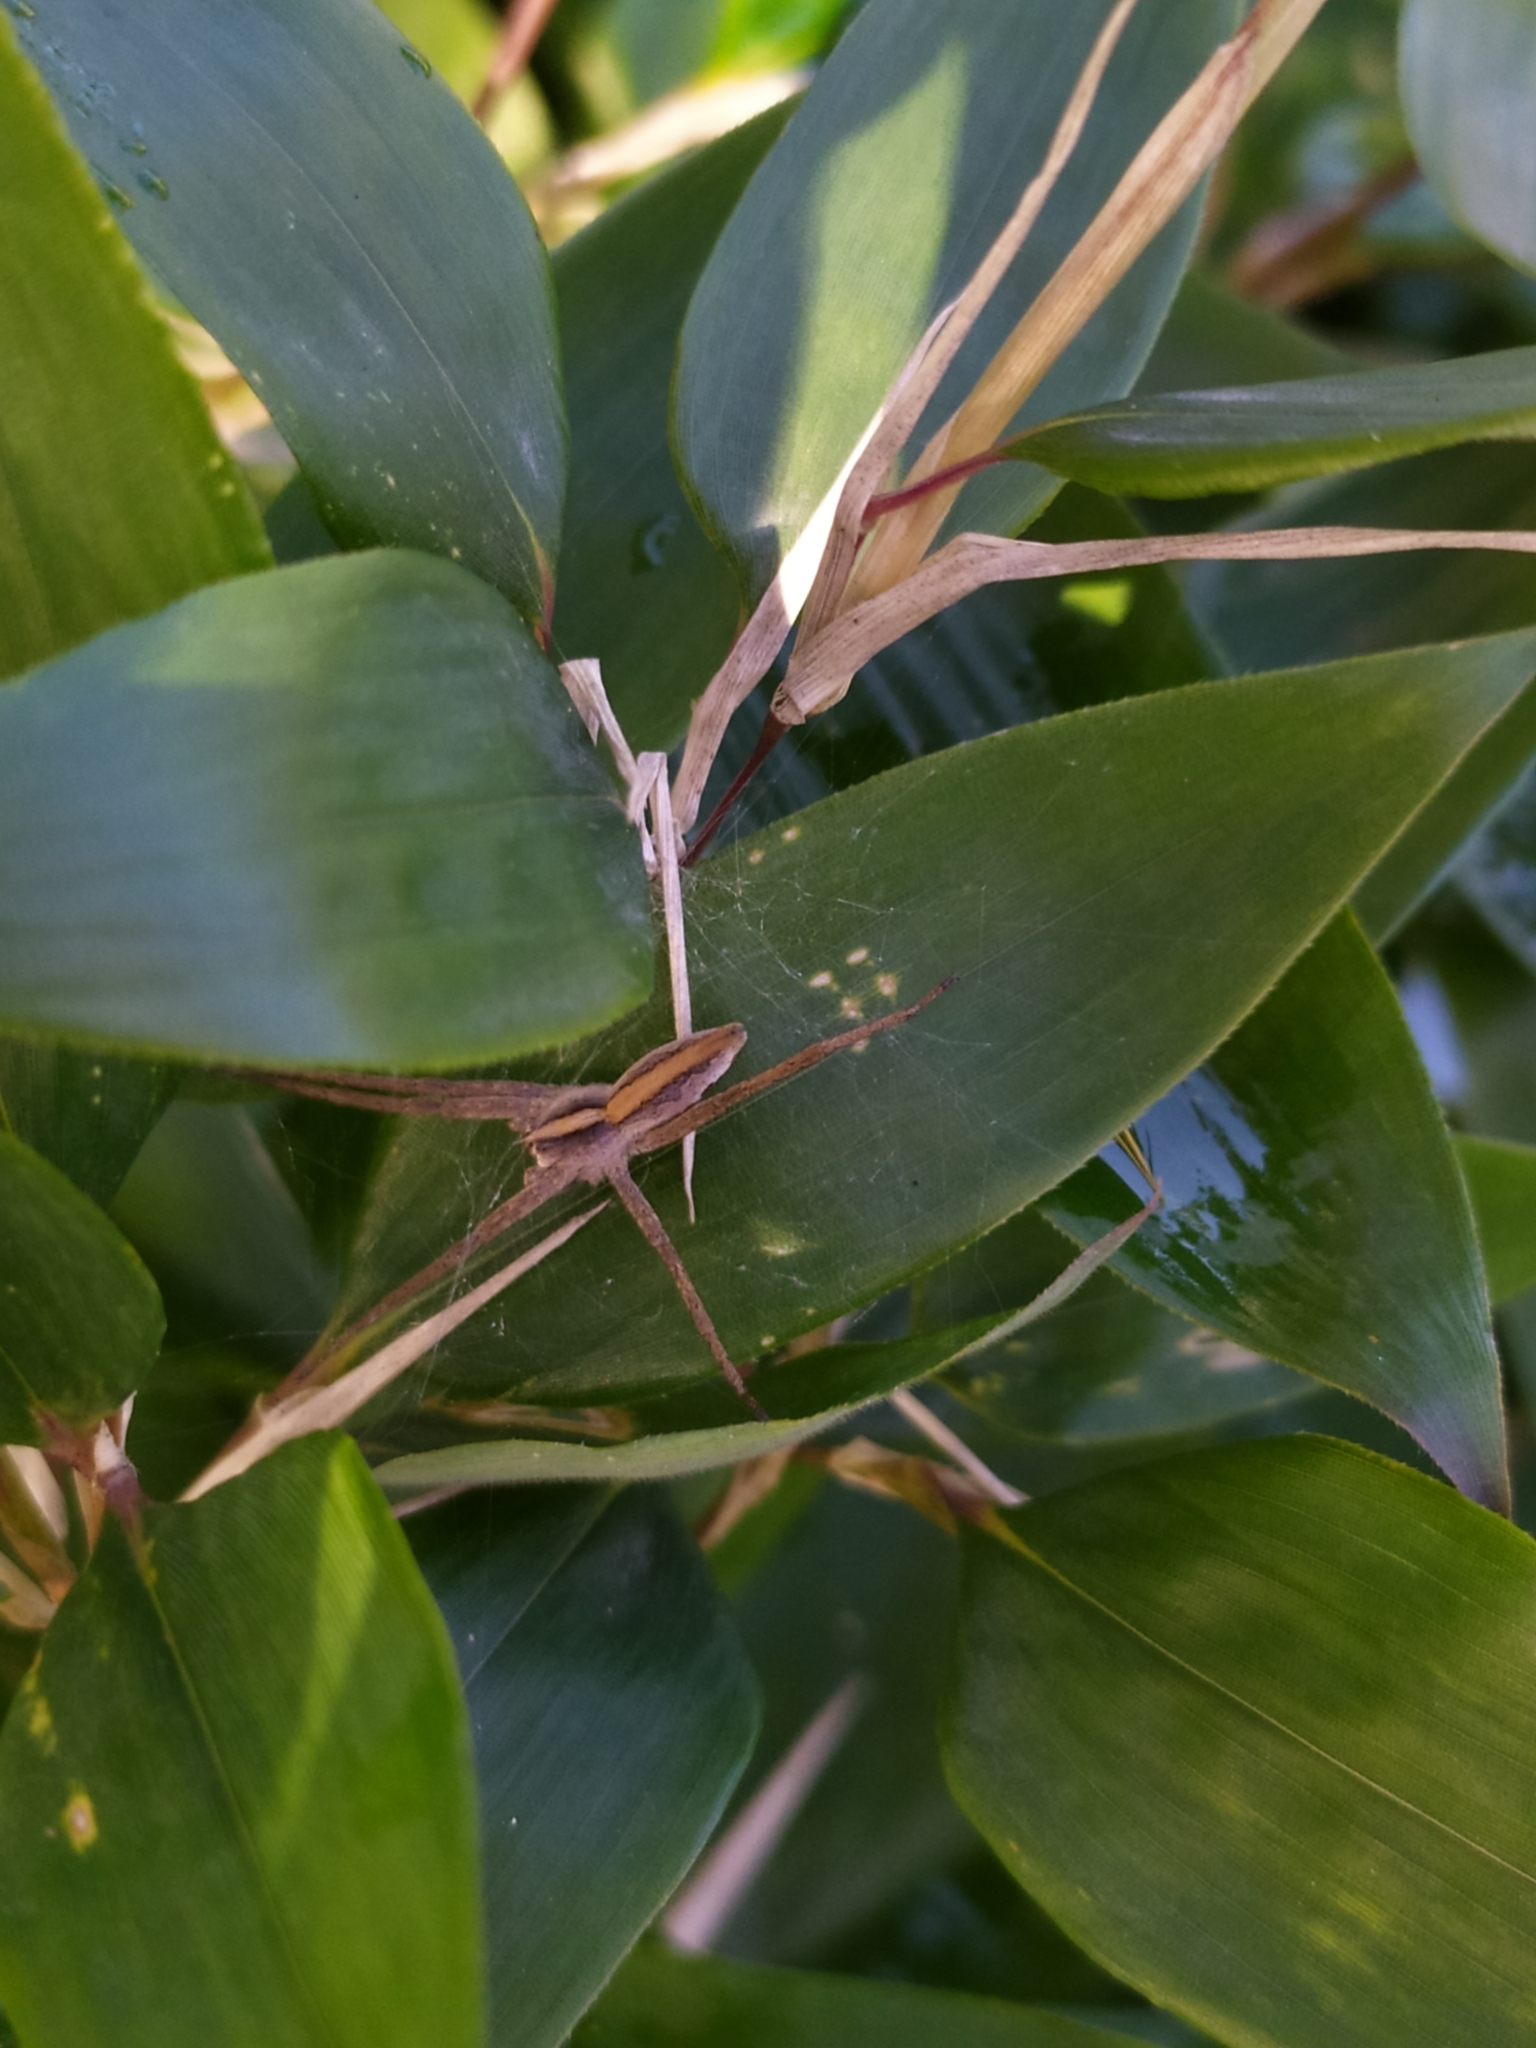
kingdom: Animalia
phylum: Arthropoda
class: Arachnida
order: Araneae
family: Pisauridae
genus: Pisaura
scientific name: Pisaura mirabilis
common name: Tent spider
